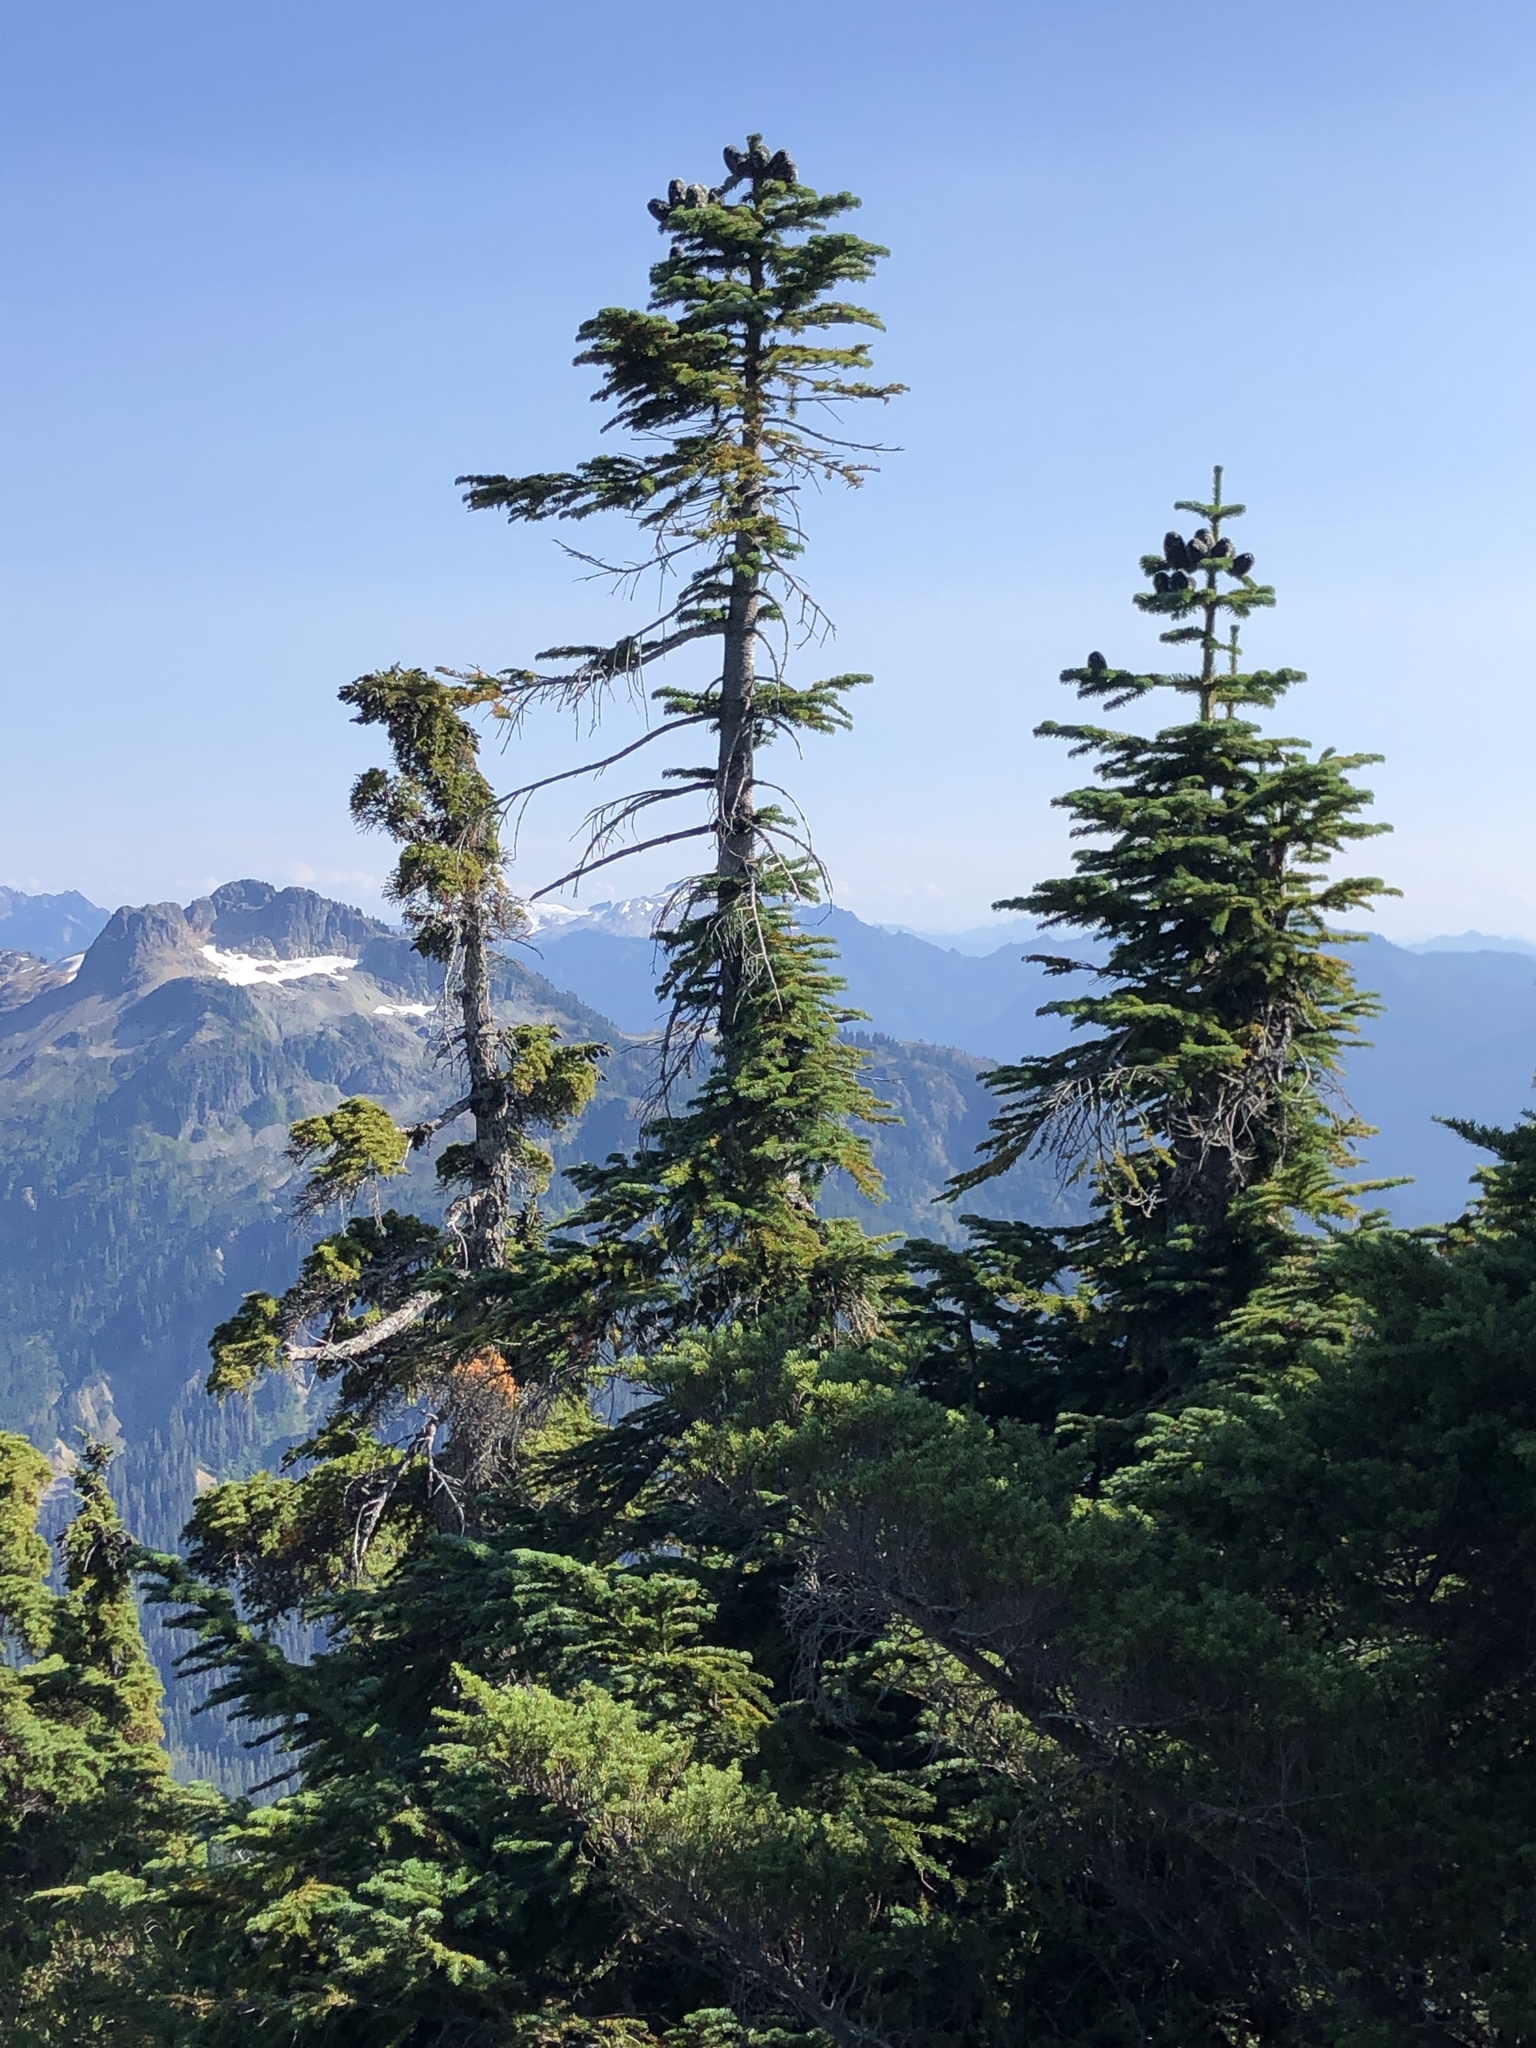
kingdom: Plantae
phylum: Tracheophyta
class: Pinopsida
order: Pinales
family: Pinaceae
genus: Abies
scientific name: Abies amabilis
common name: Pacific silver fir
